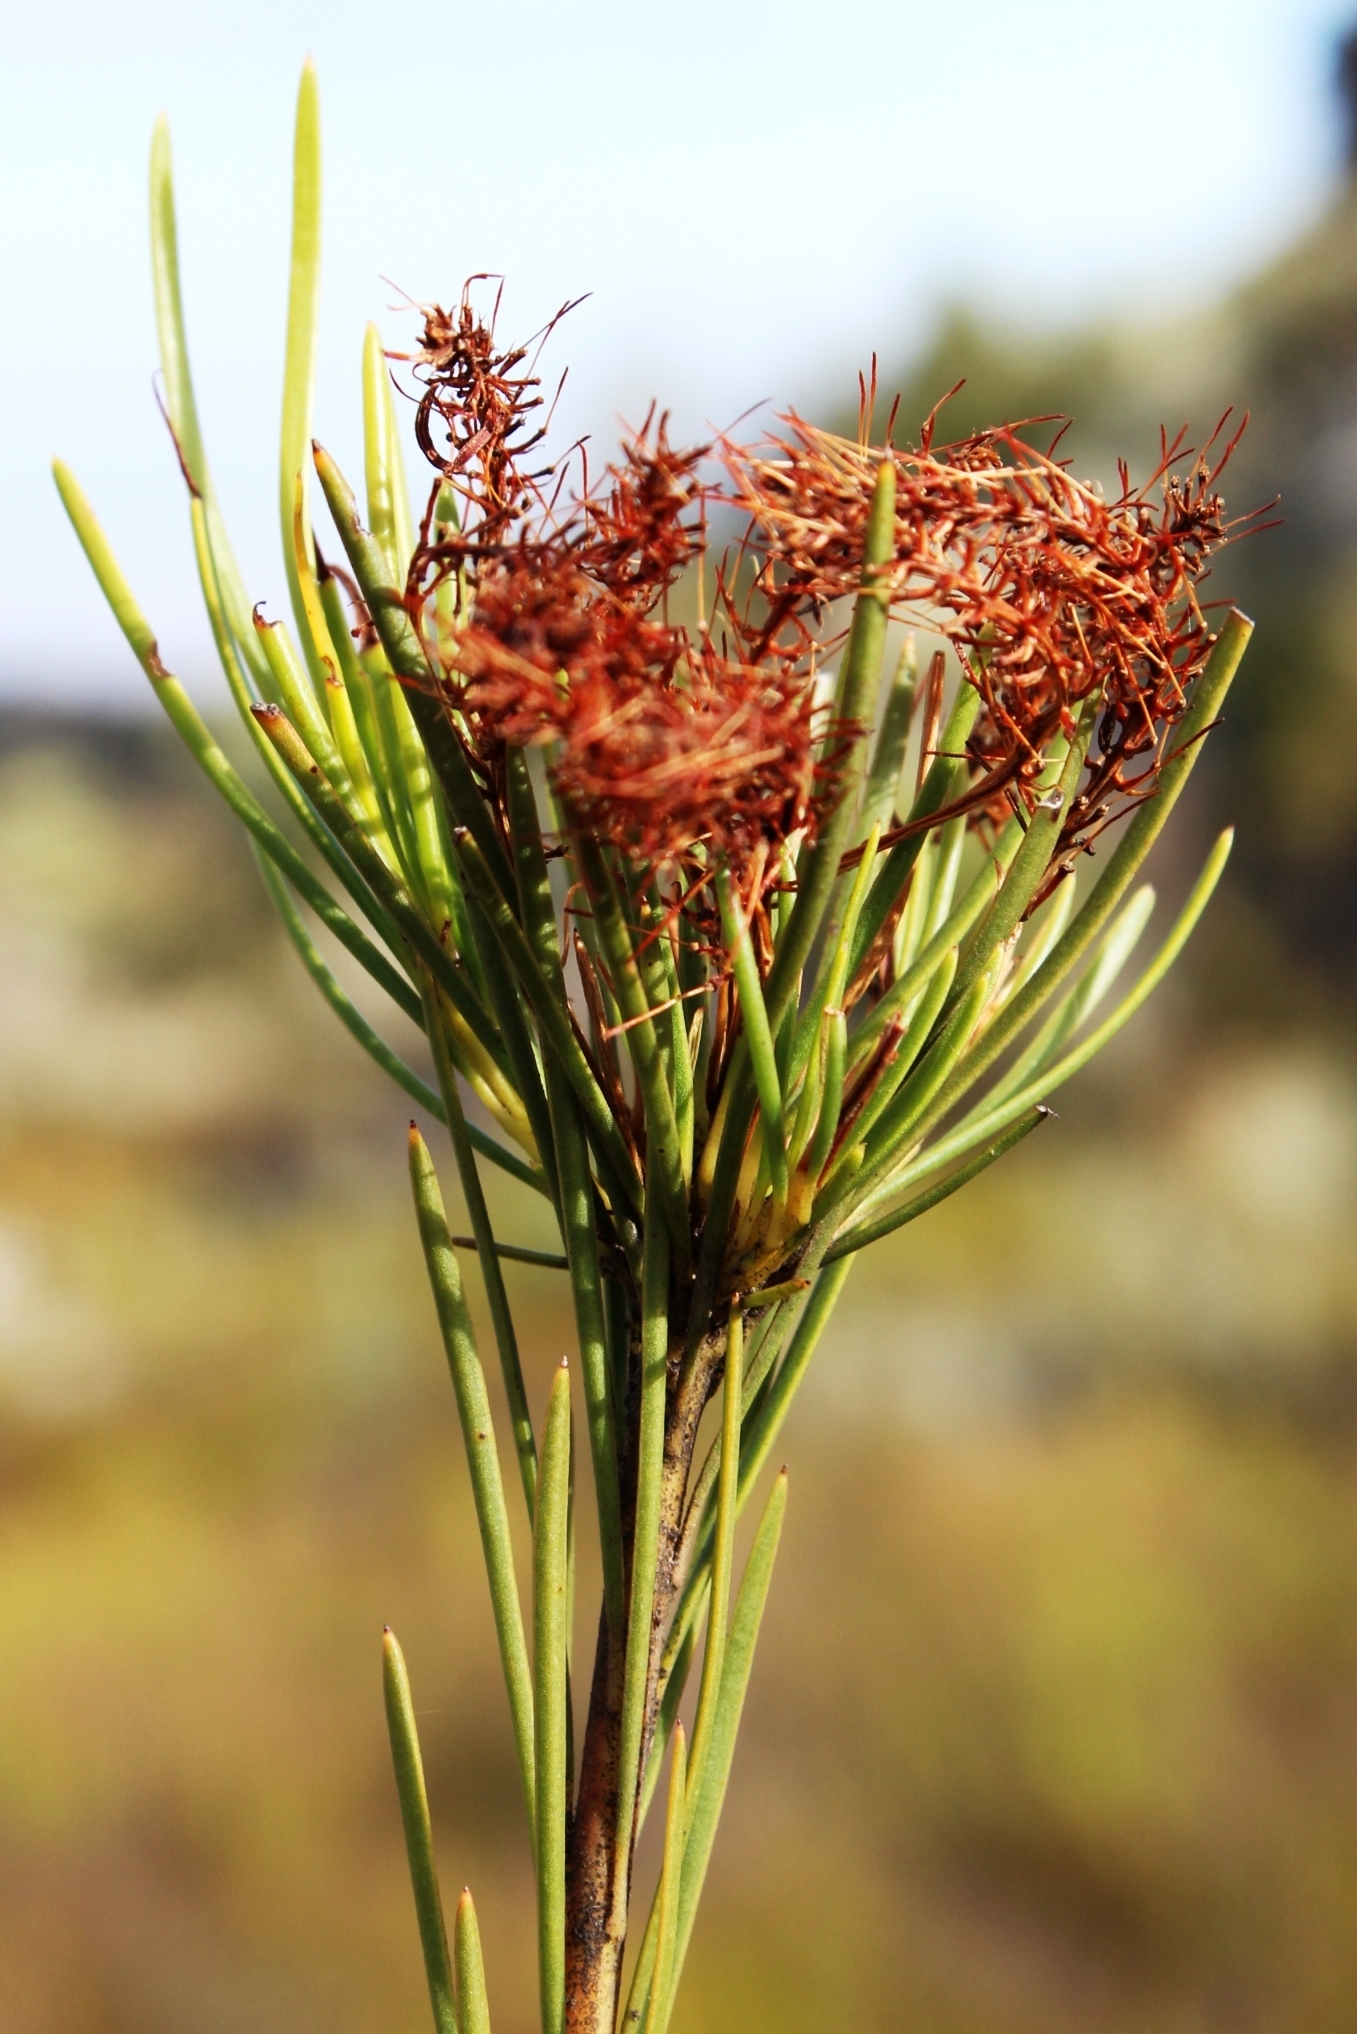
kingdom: Plantae
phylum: Tracheophyta
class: Magnoliopsida
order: Proteales
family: Proteaceae
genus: Aulax
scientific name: Aulax pallasia
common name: Needle-leaf featherbush
